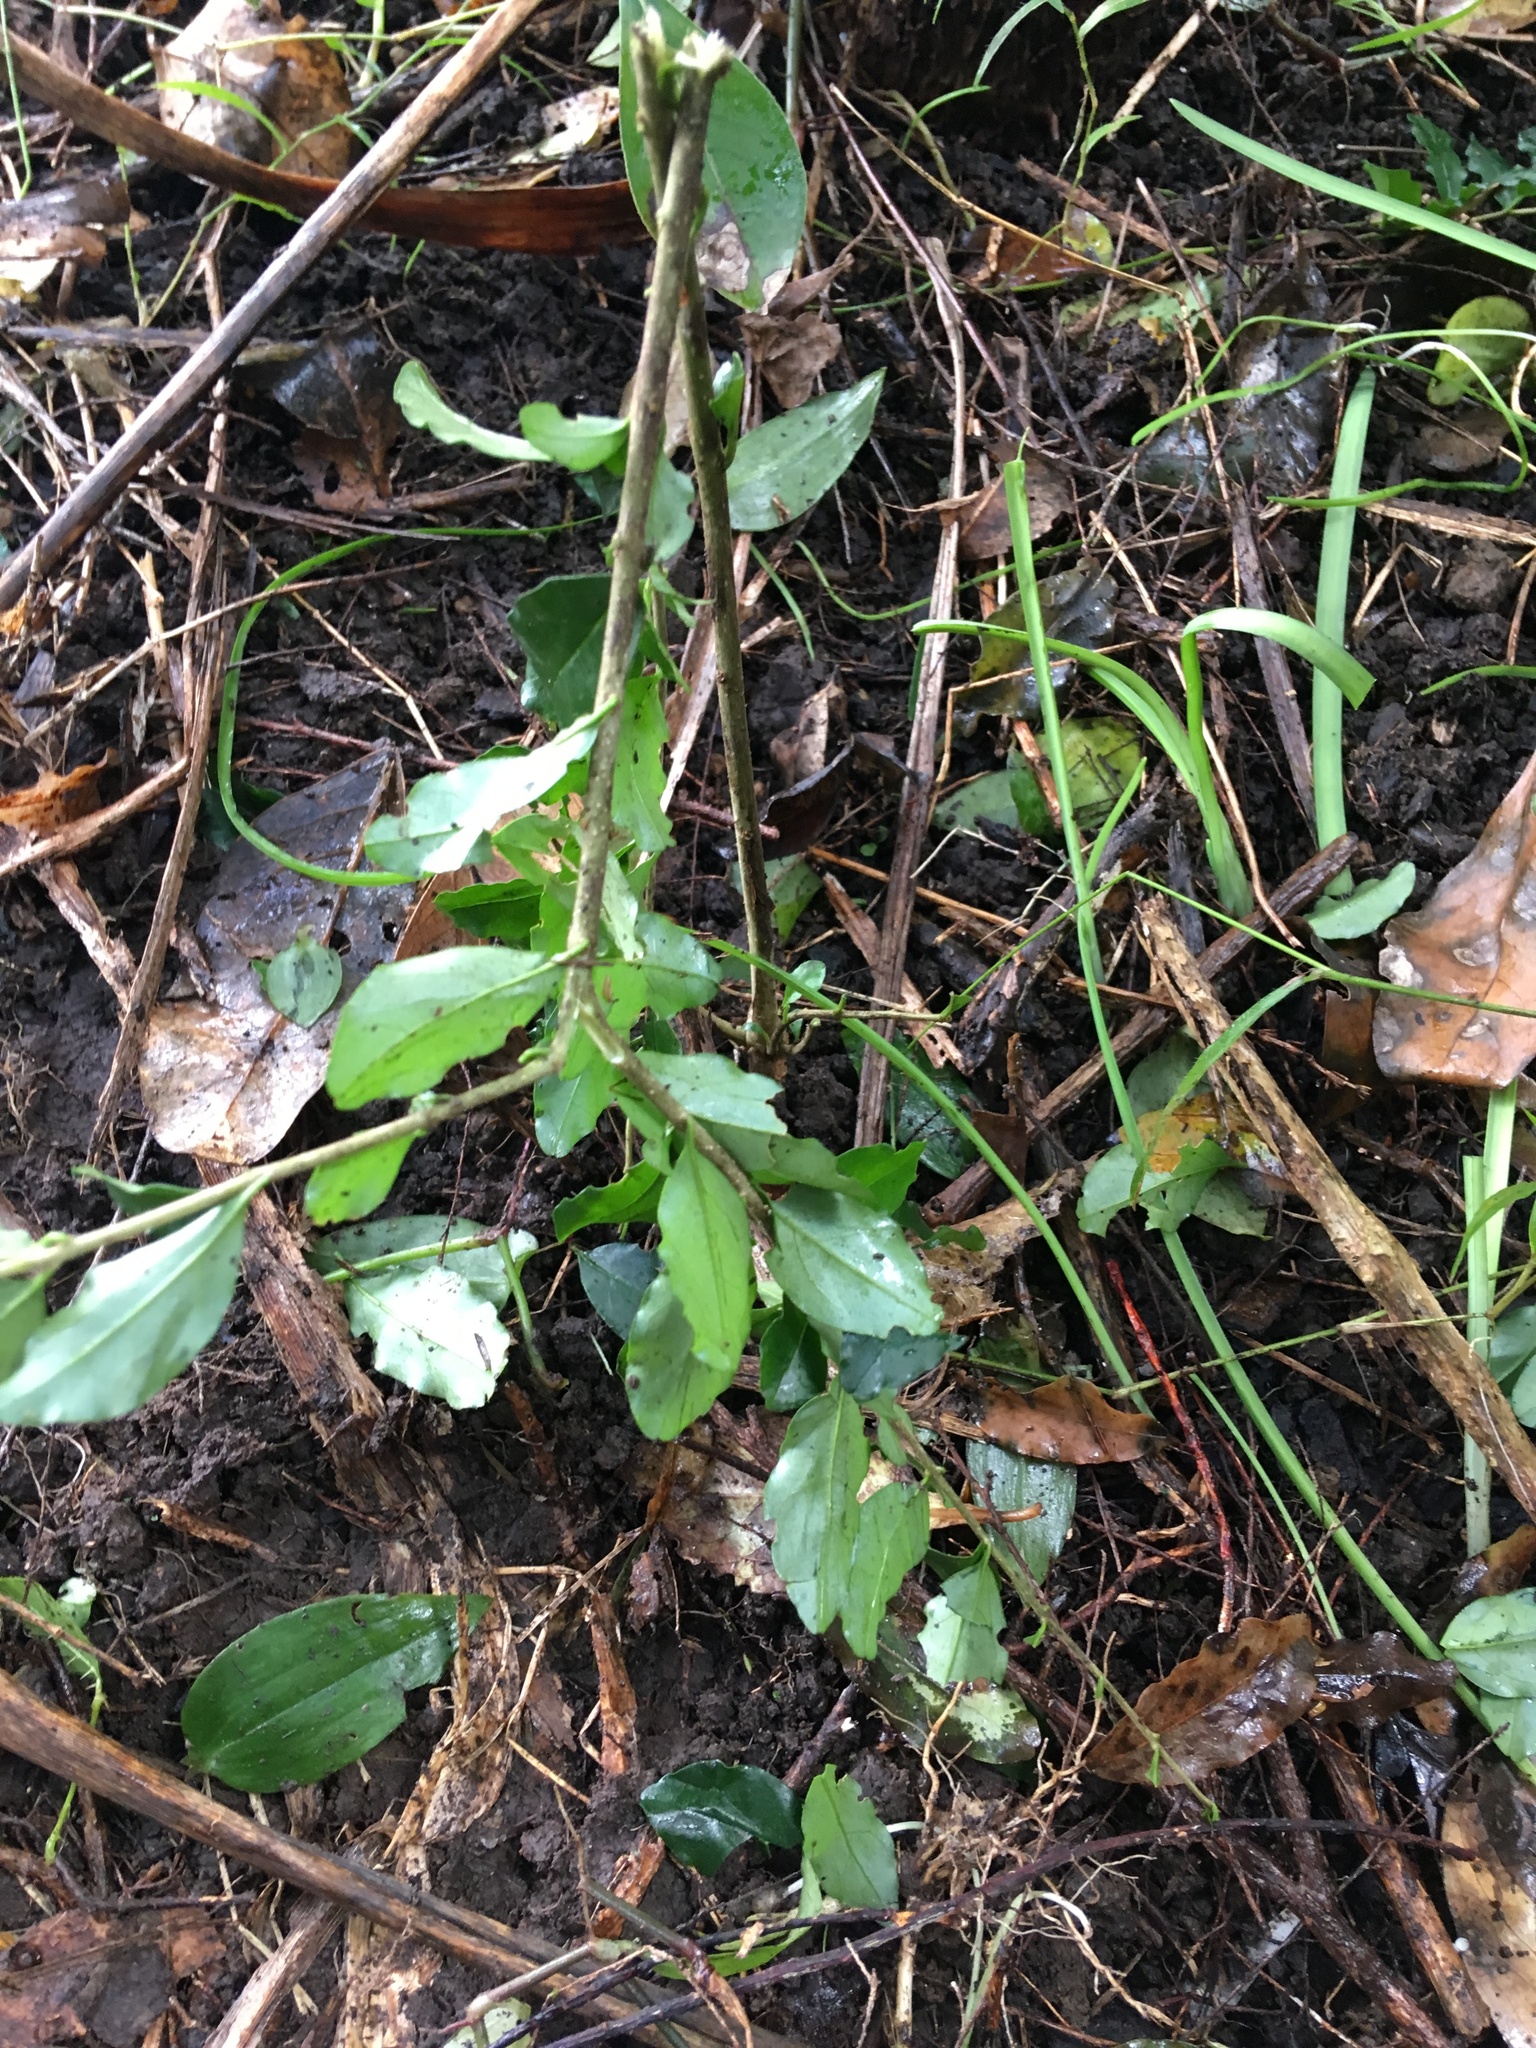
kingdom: Plantae
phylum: Tracheophyta
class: Magnoliopsida
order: Lamiales
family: Oleaceae
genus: Ligustrum
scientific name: Ligustrum sinense
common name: Chinese privet
